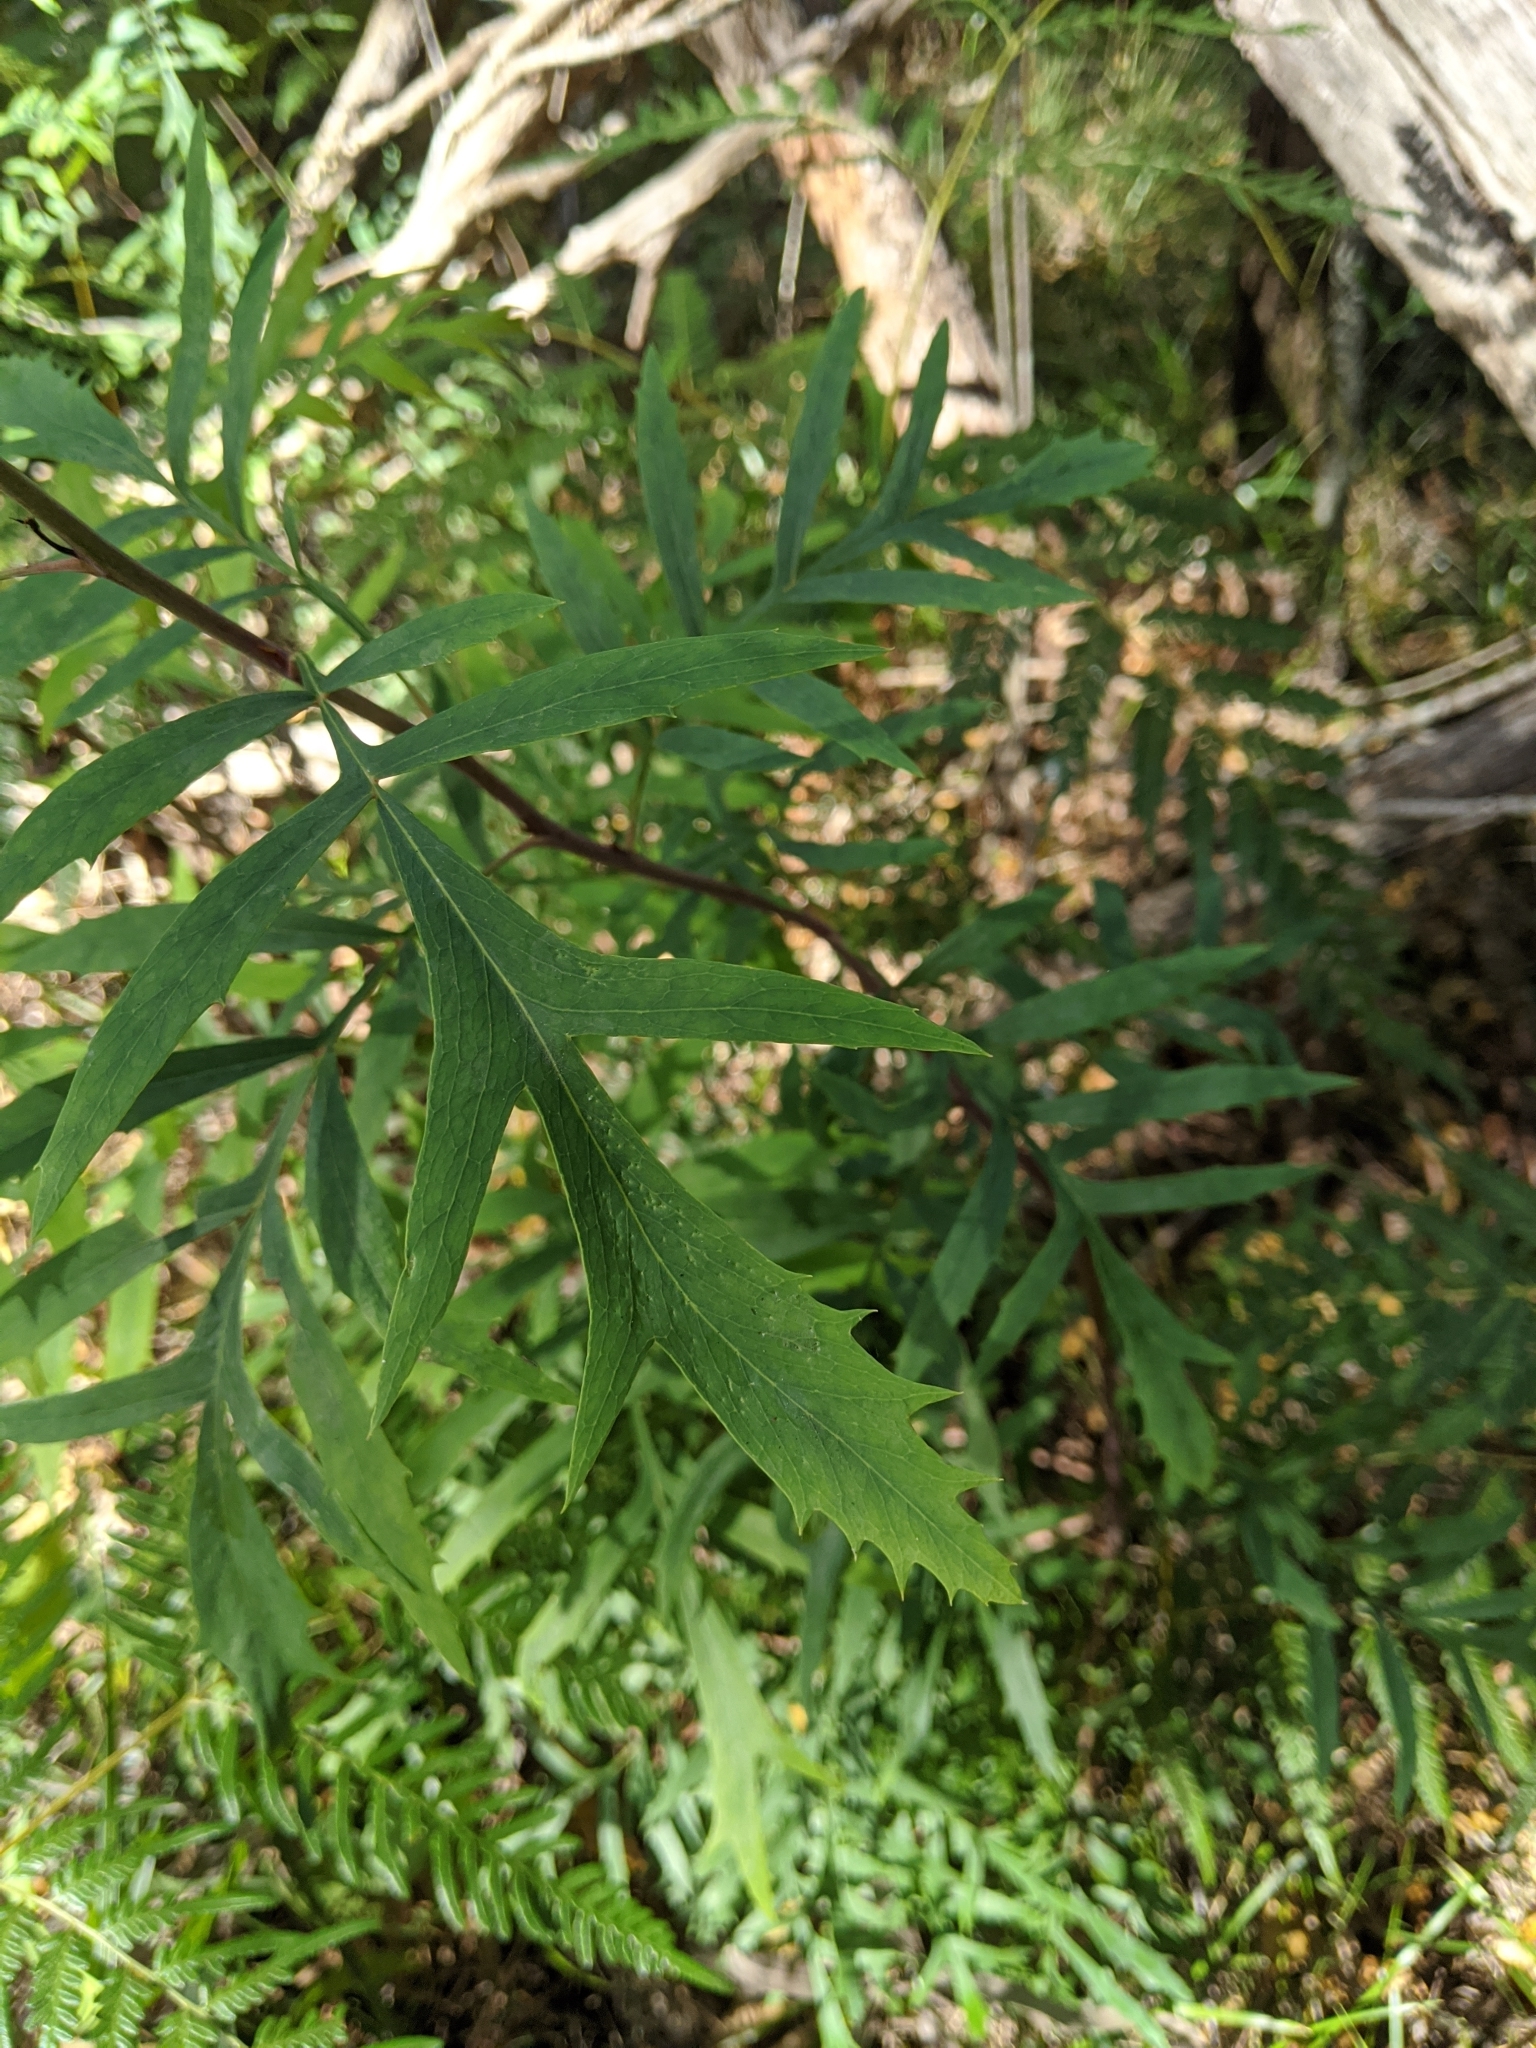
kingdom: Plantae
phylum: Tracheophyta
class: Magnoliopsida
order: Proteales
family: Proteaceae
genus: Lomatia
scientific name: Lomatia silaifolia
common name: Crinklebush
